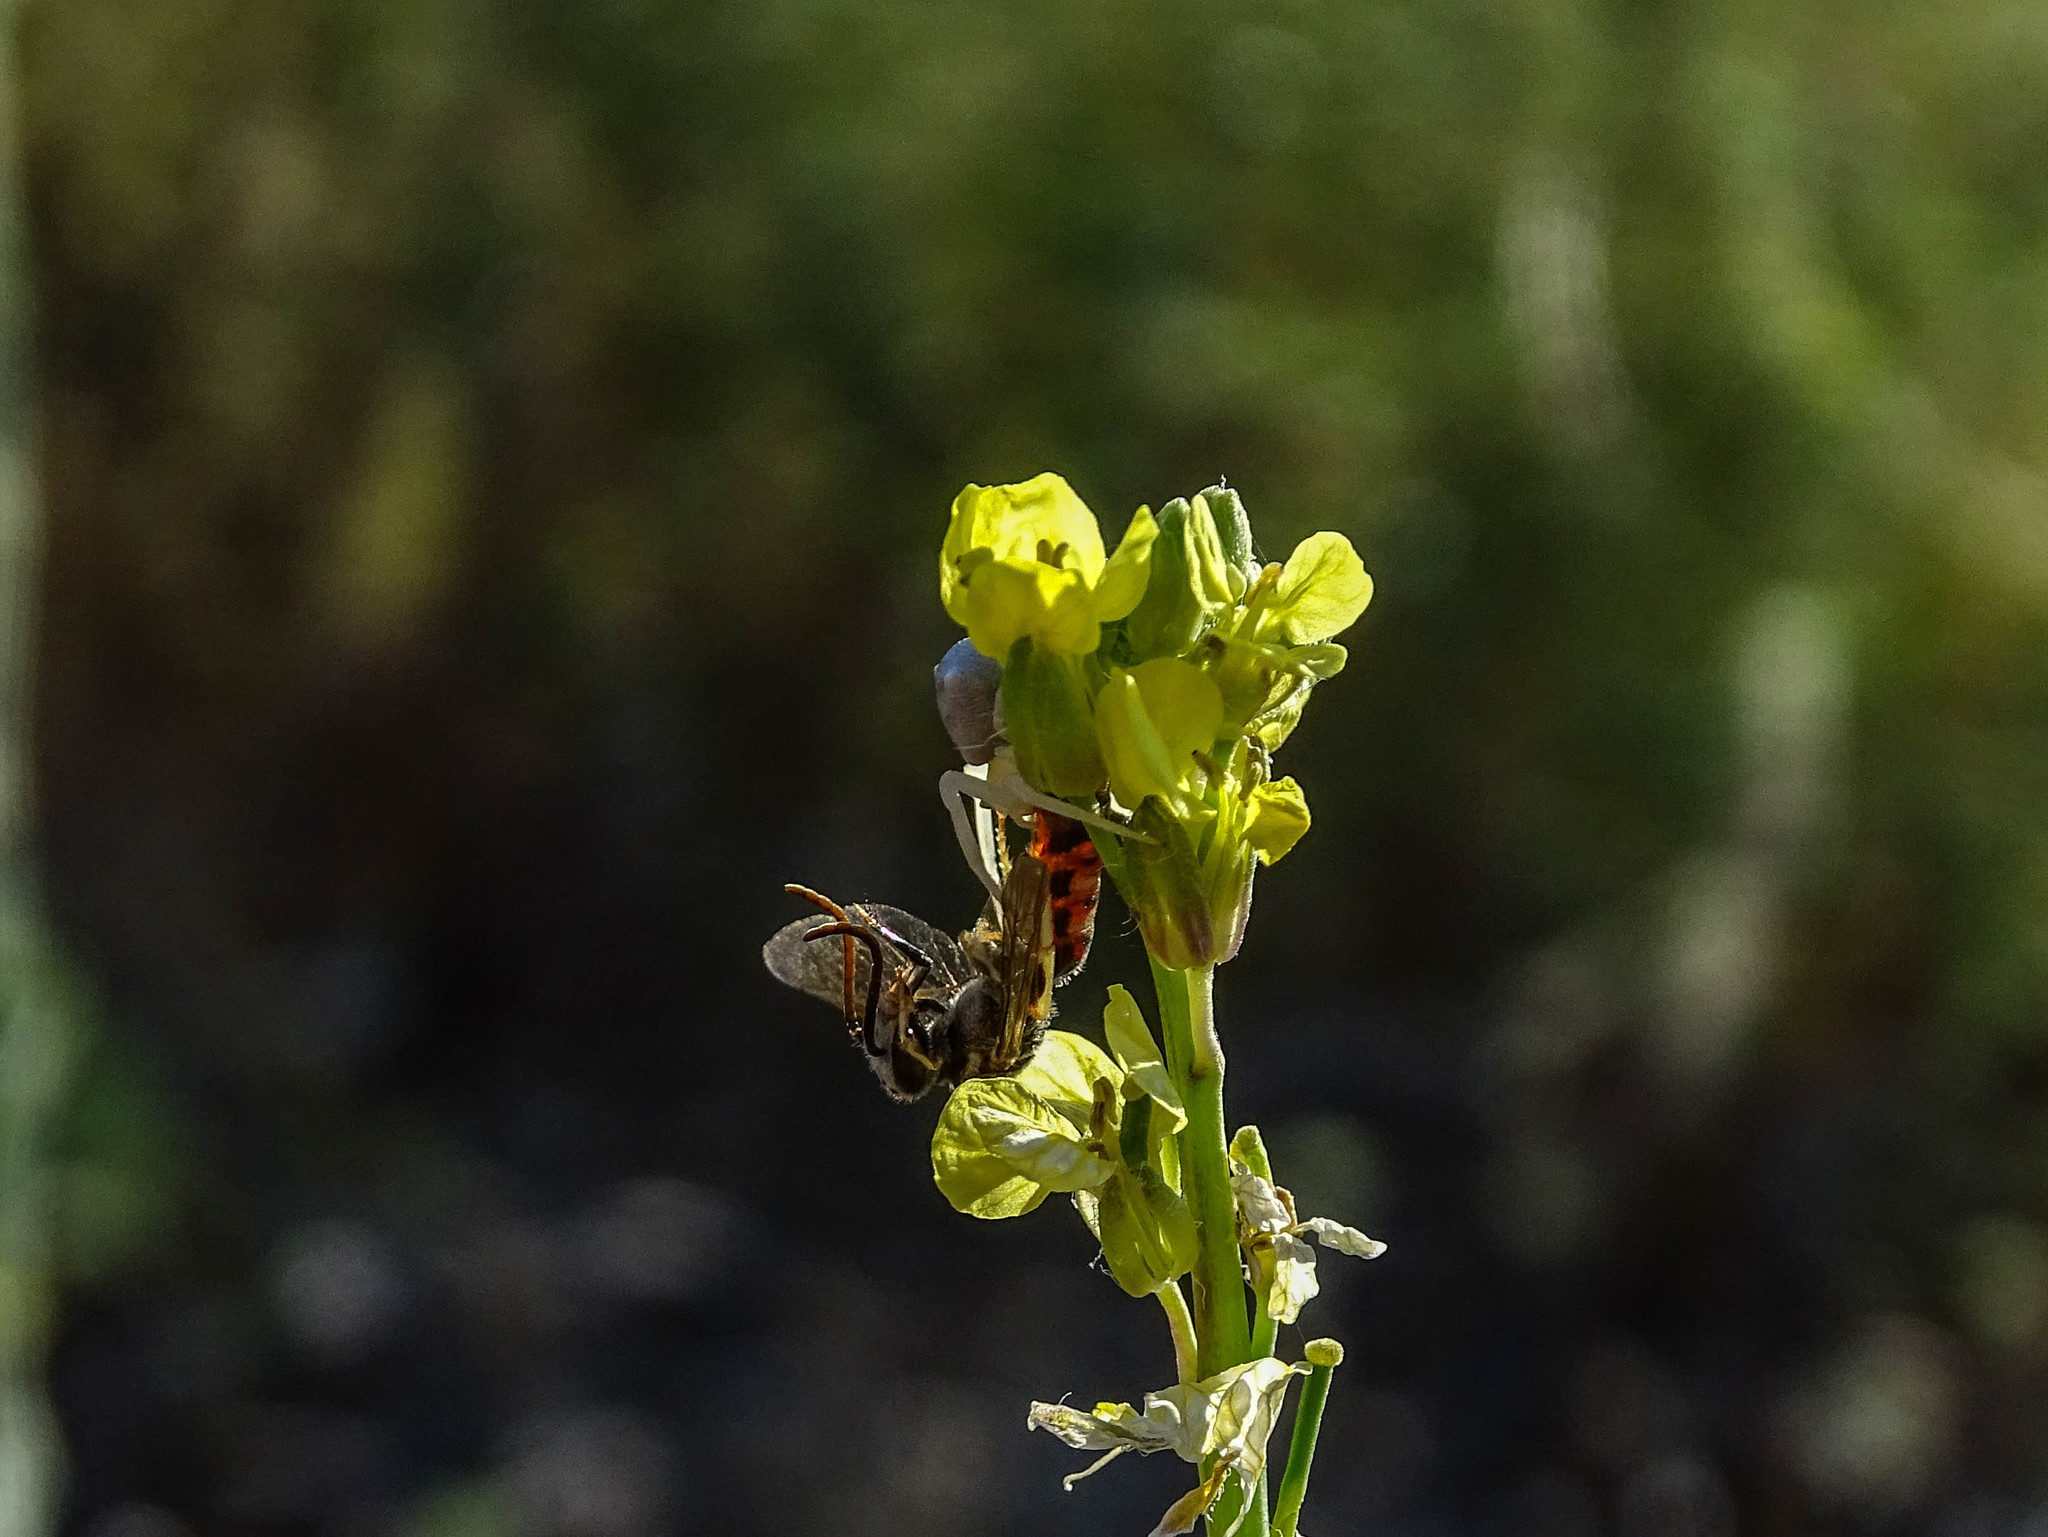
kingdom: Animalia
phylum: Arthropoda
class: Arachnida
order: Araneae
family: Thomisidae
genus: Thomisus
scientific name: Thomisus onustus
